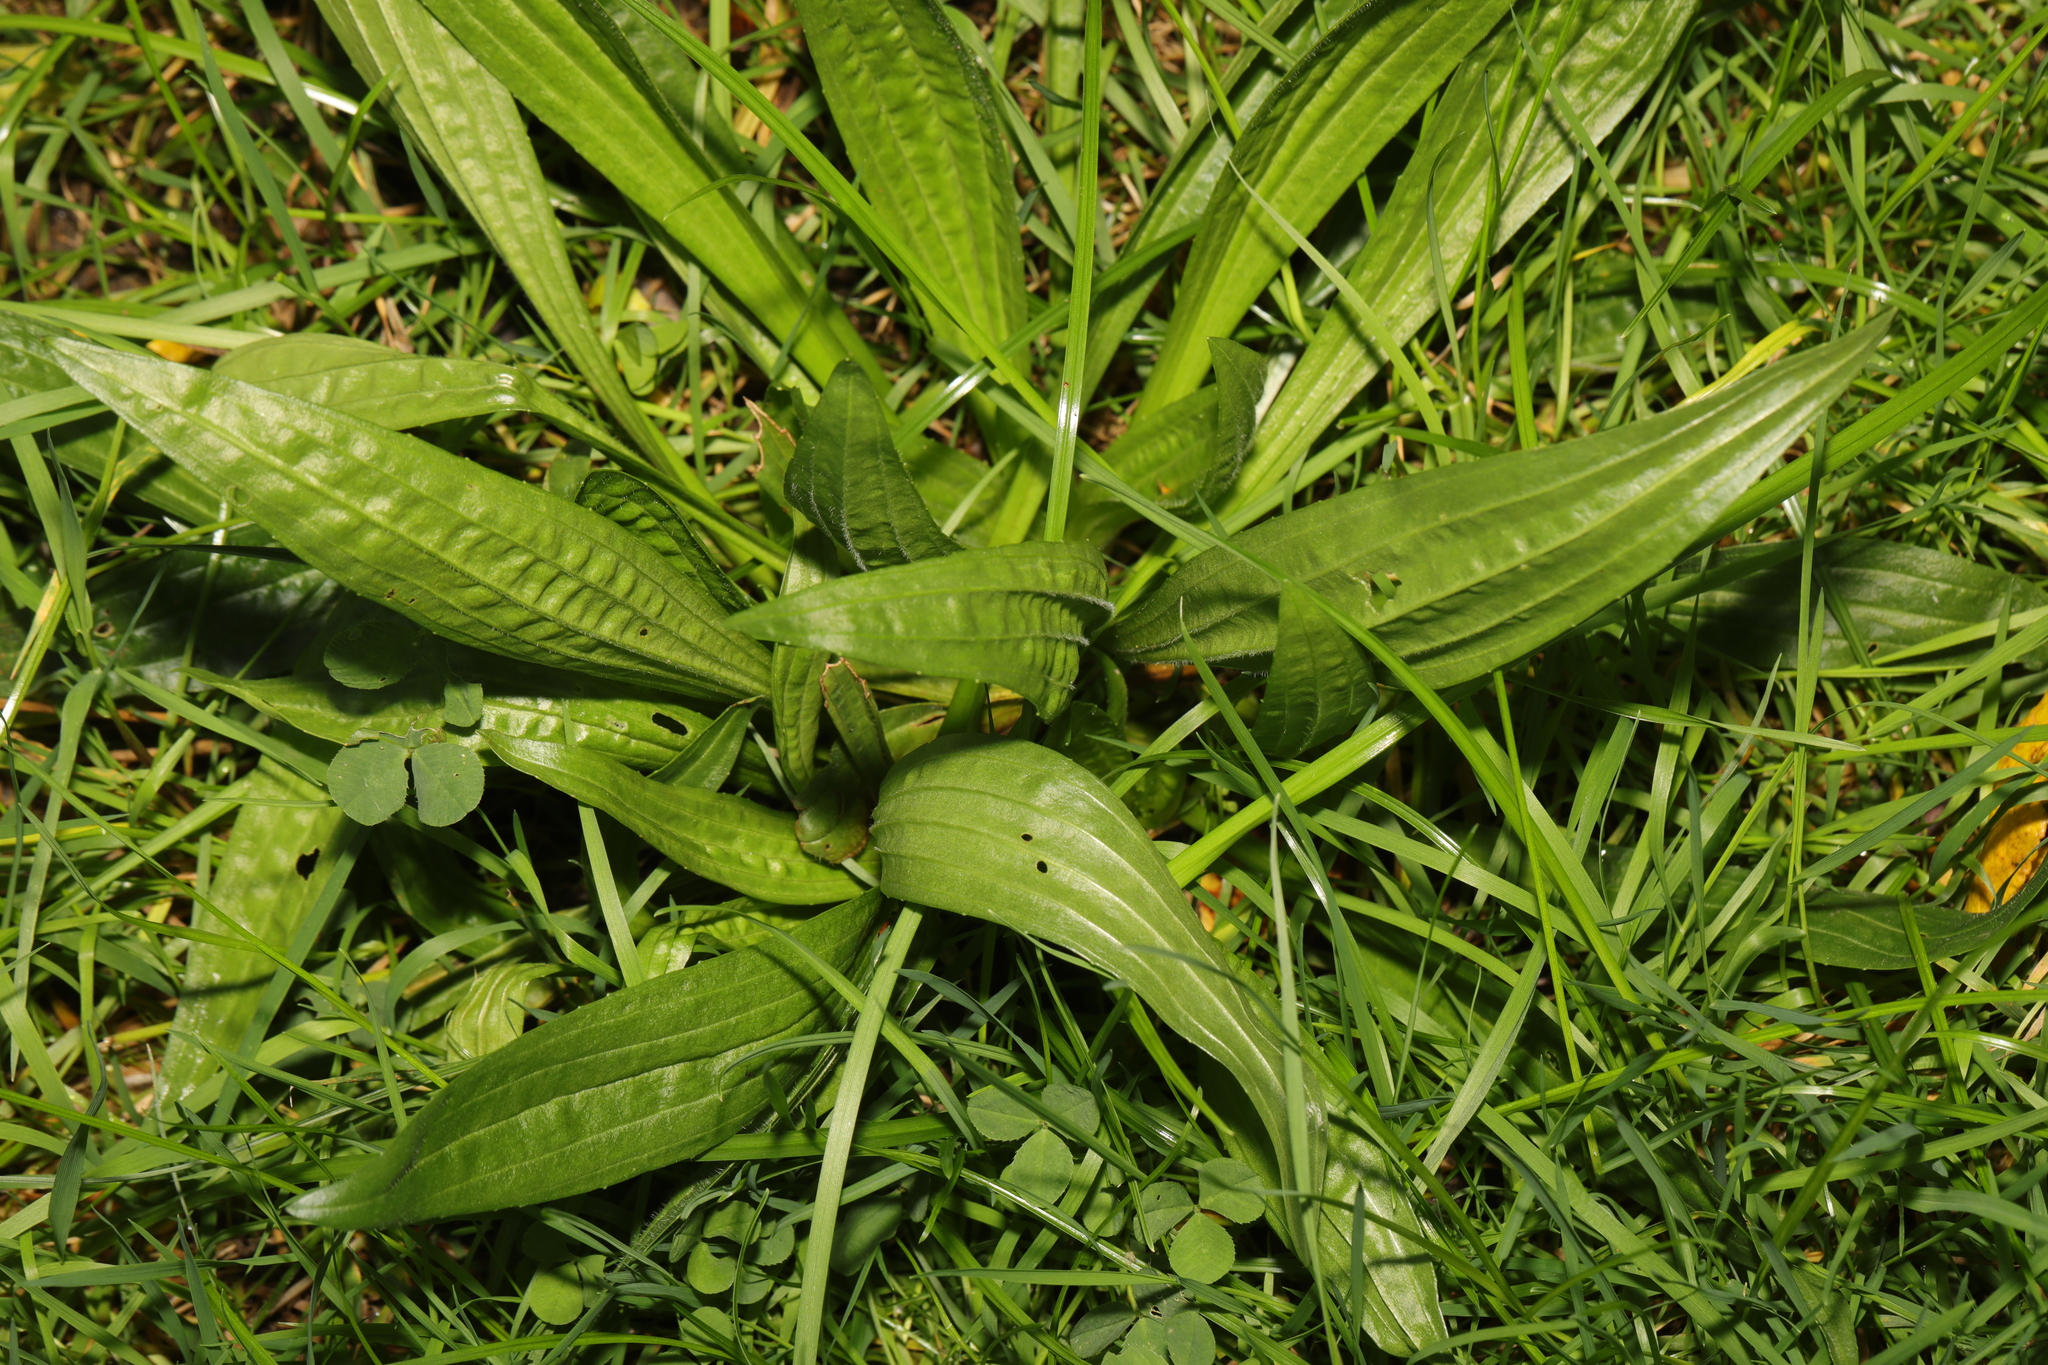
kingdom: Plantae
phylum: Tracheophyta
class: Magnoliopsida
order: Lamiales
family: Plantaginaceae
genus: Plantago
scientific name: Plantago lanceolata
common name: Ribwort plantain
